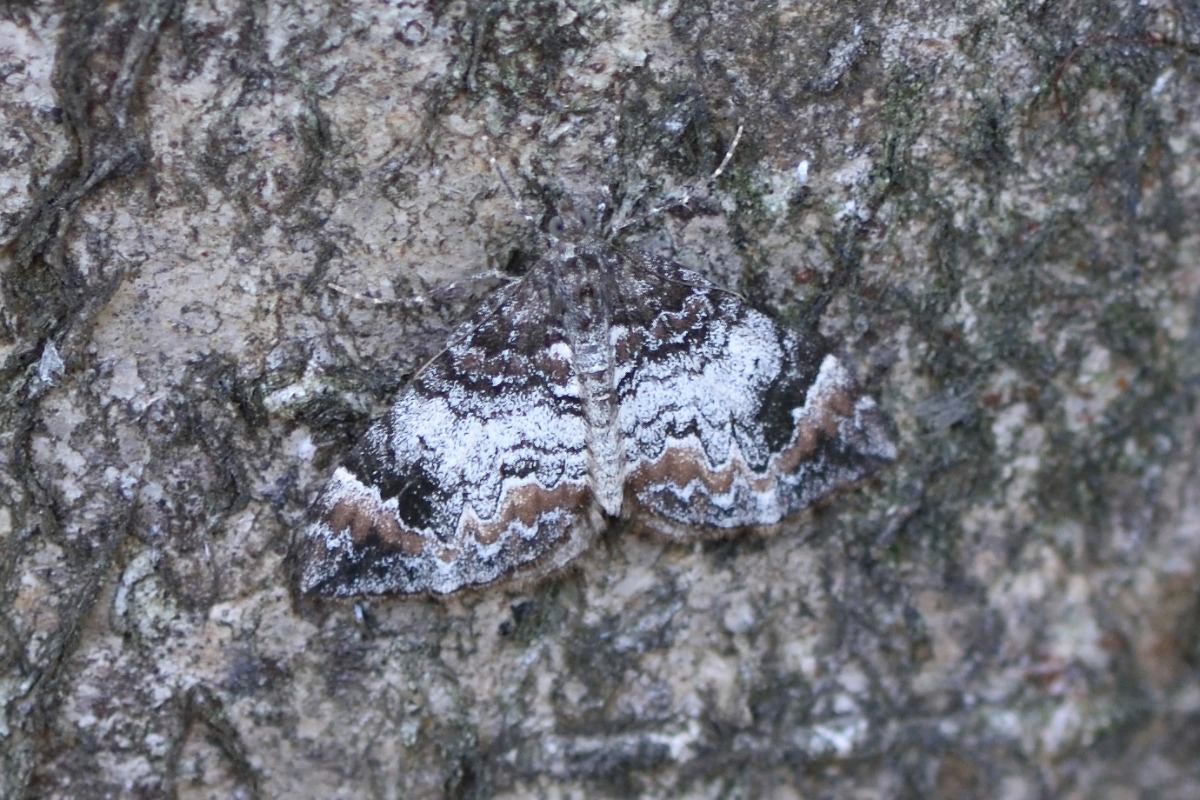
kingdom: Animalia
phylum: Arthropoda
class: Insecta
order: Lepidoptera
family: Geometridae
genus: Dysstroma
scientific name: Dysstroma truncata
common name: Common marbled carpet
